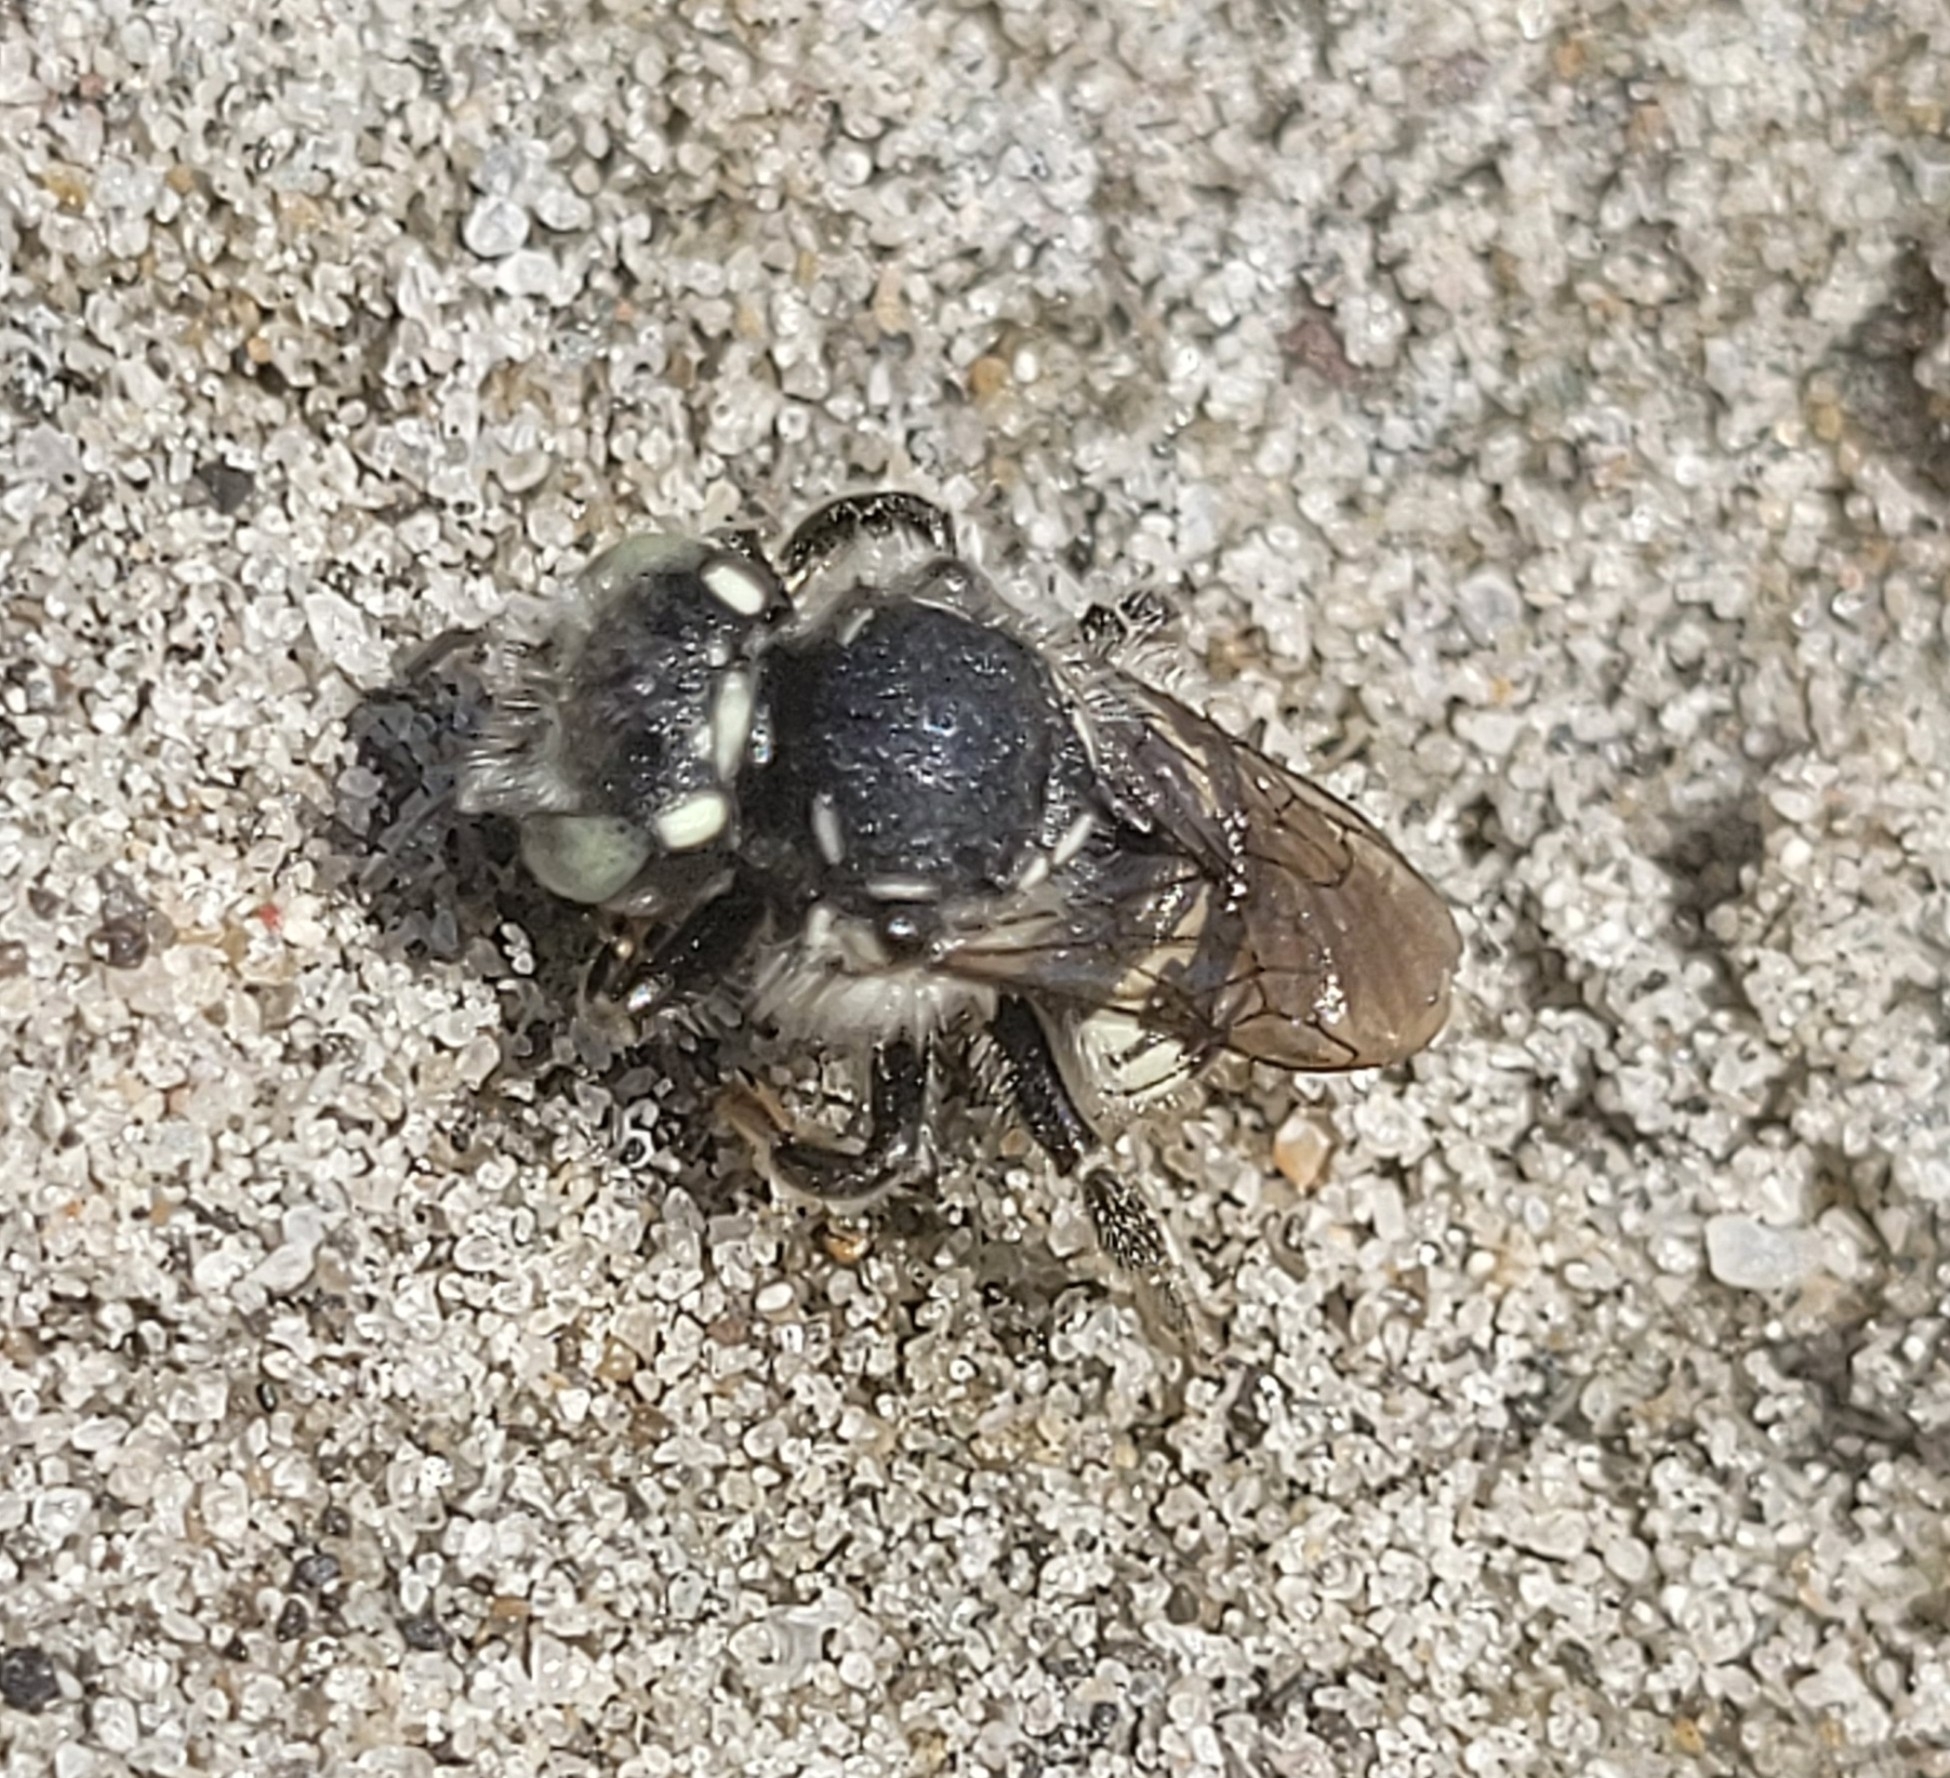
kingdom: Animalia
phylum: Arthropoda
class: Insecta
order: Hymenoptera
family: Megachilidae
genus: Anthidium
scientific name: Anthidium clypeodentatum
